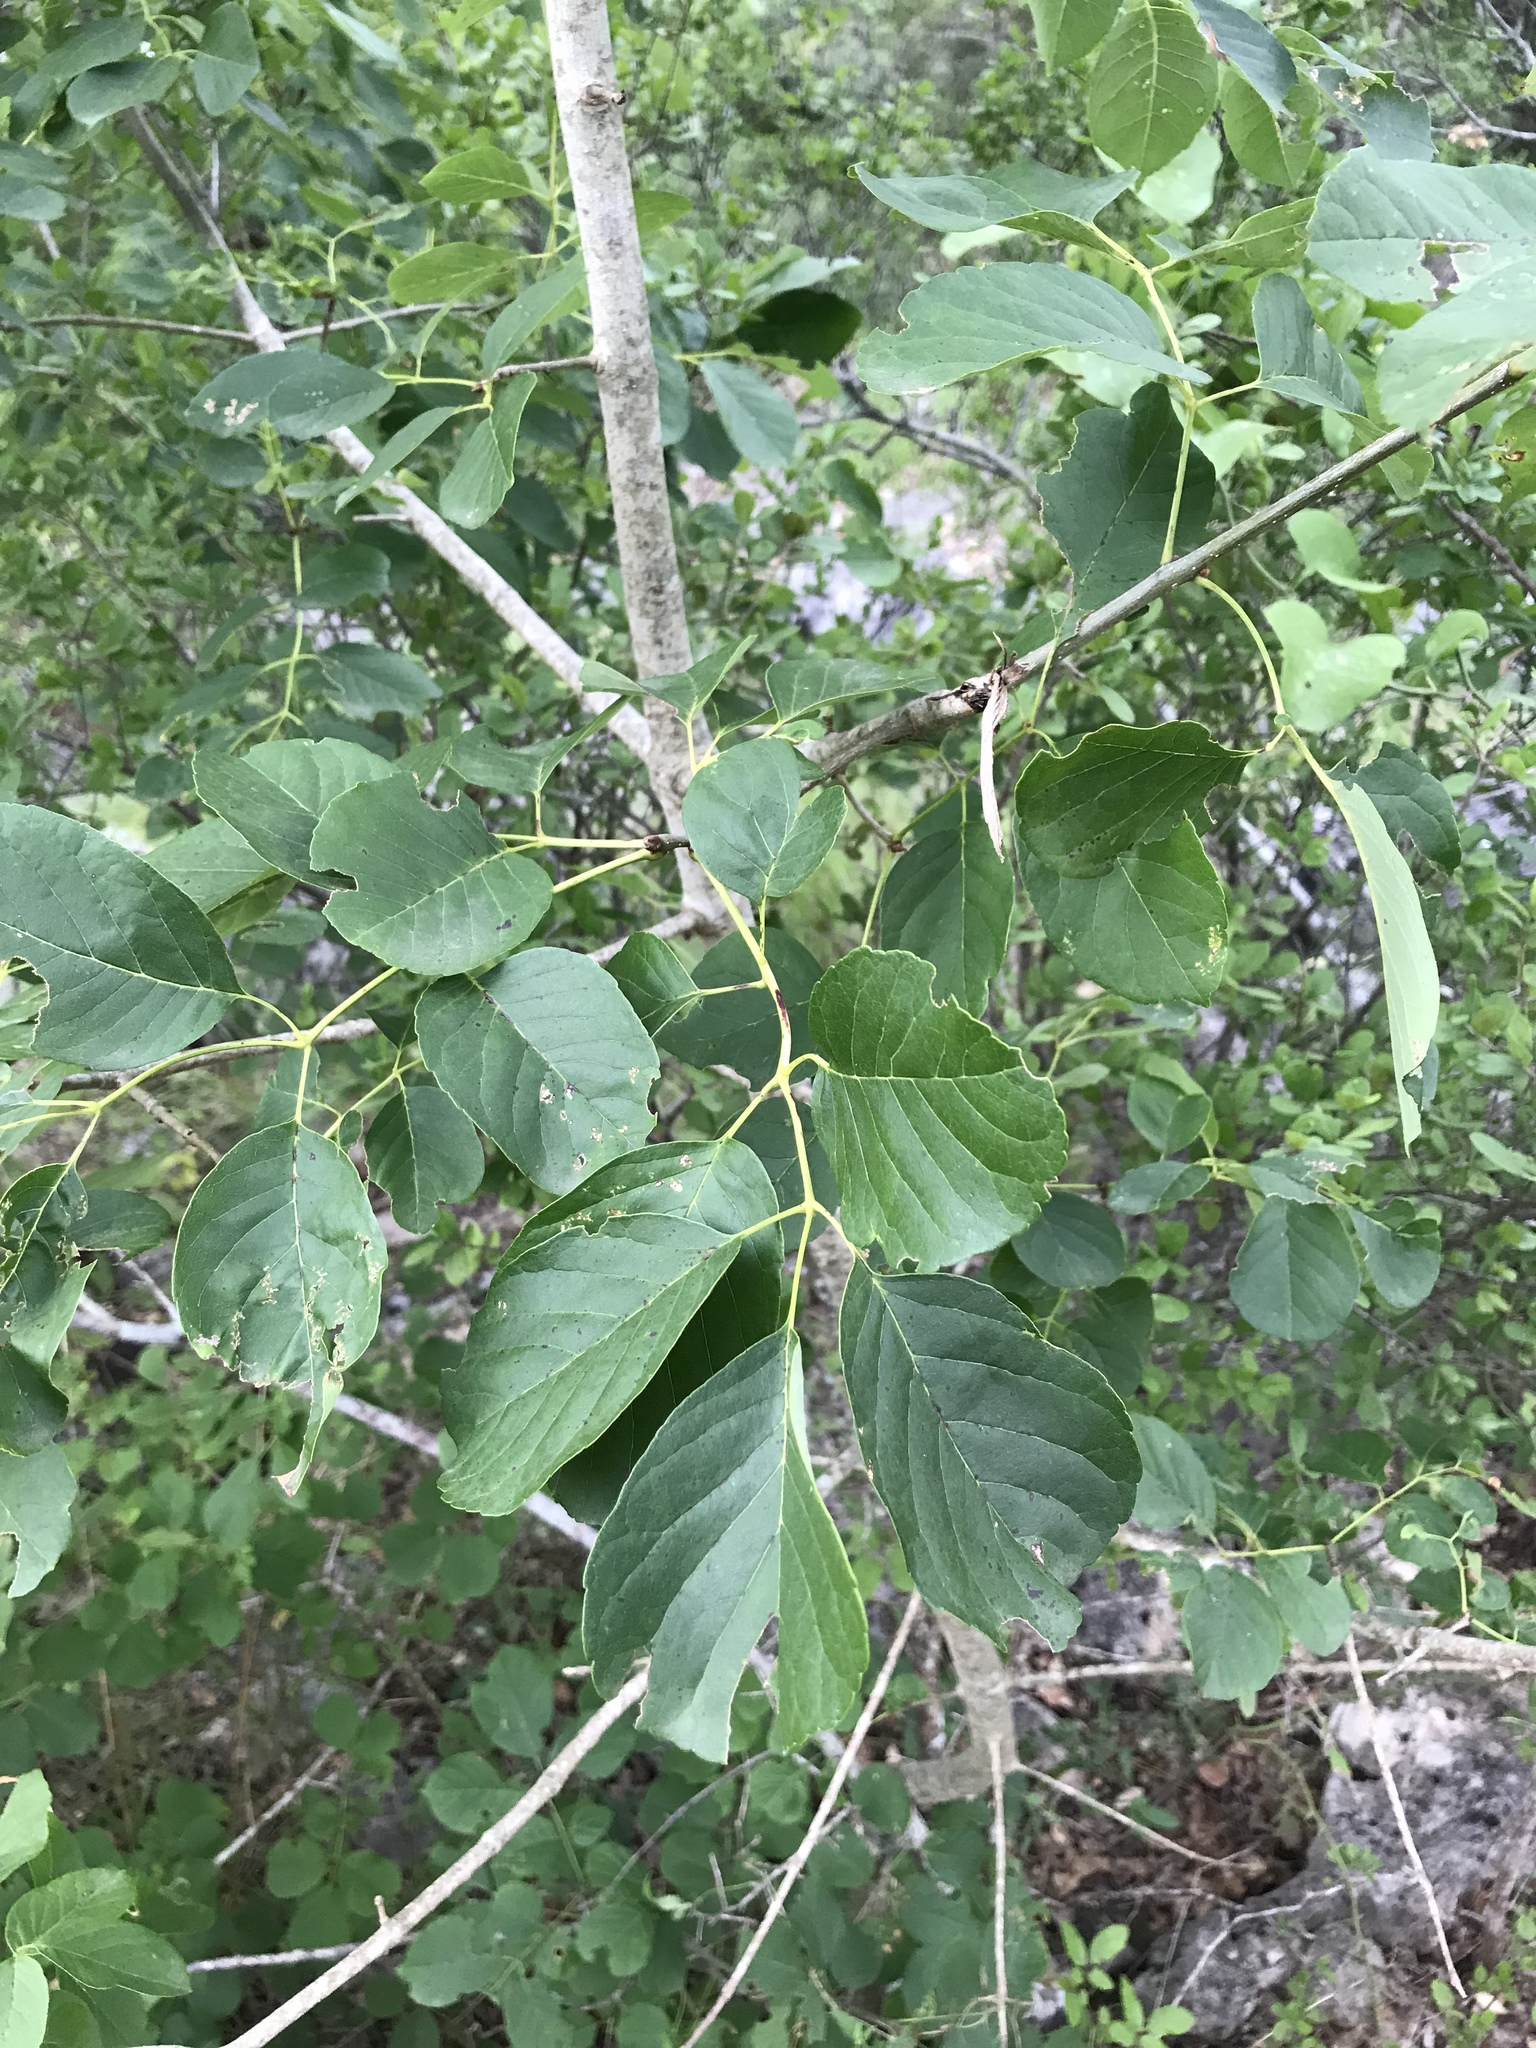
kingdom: Plantae
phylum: Tracheophyta
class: Magnoliopsida
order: Lamiales
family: Oleaceae
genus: Fraxinus
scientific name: Fraxinus albicans
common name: Texas ash
